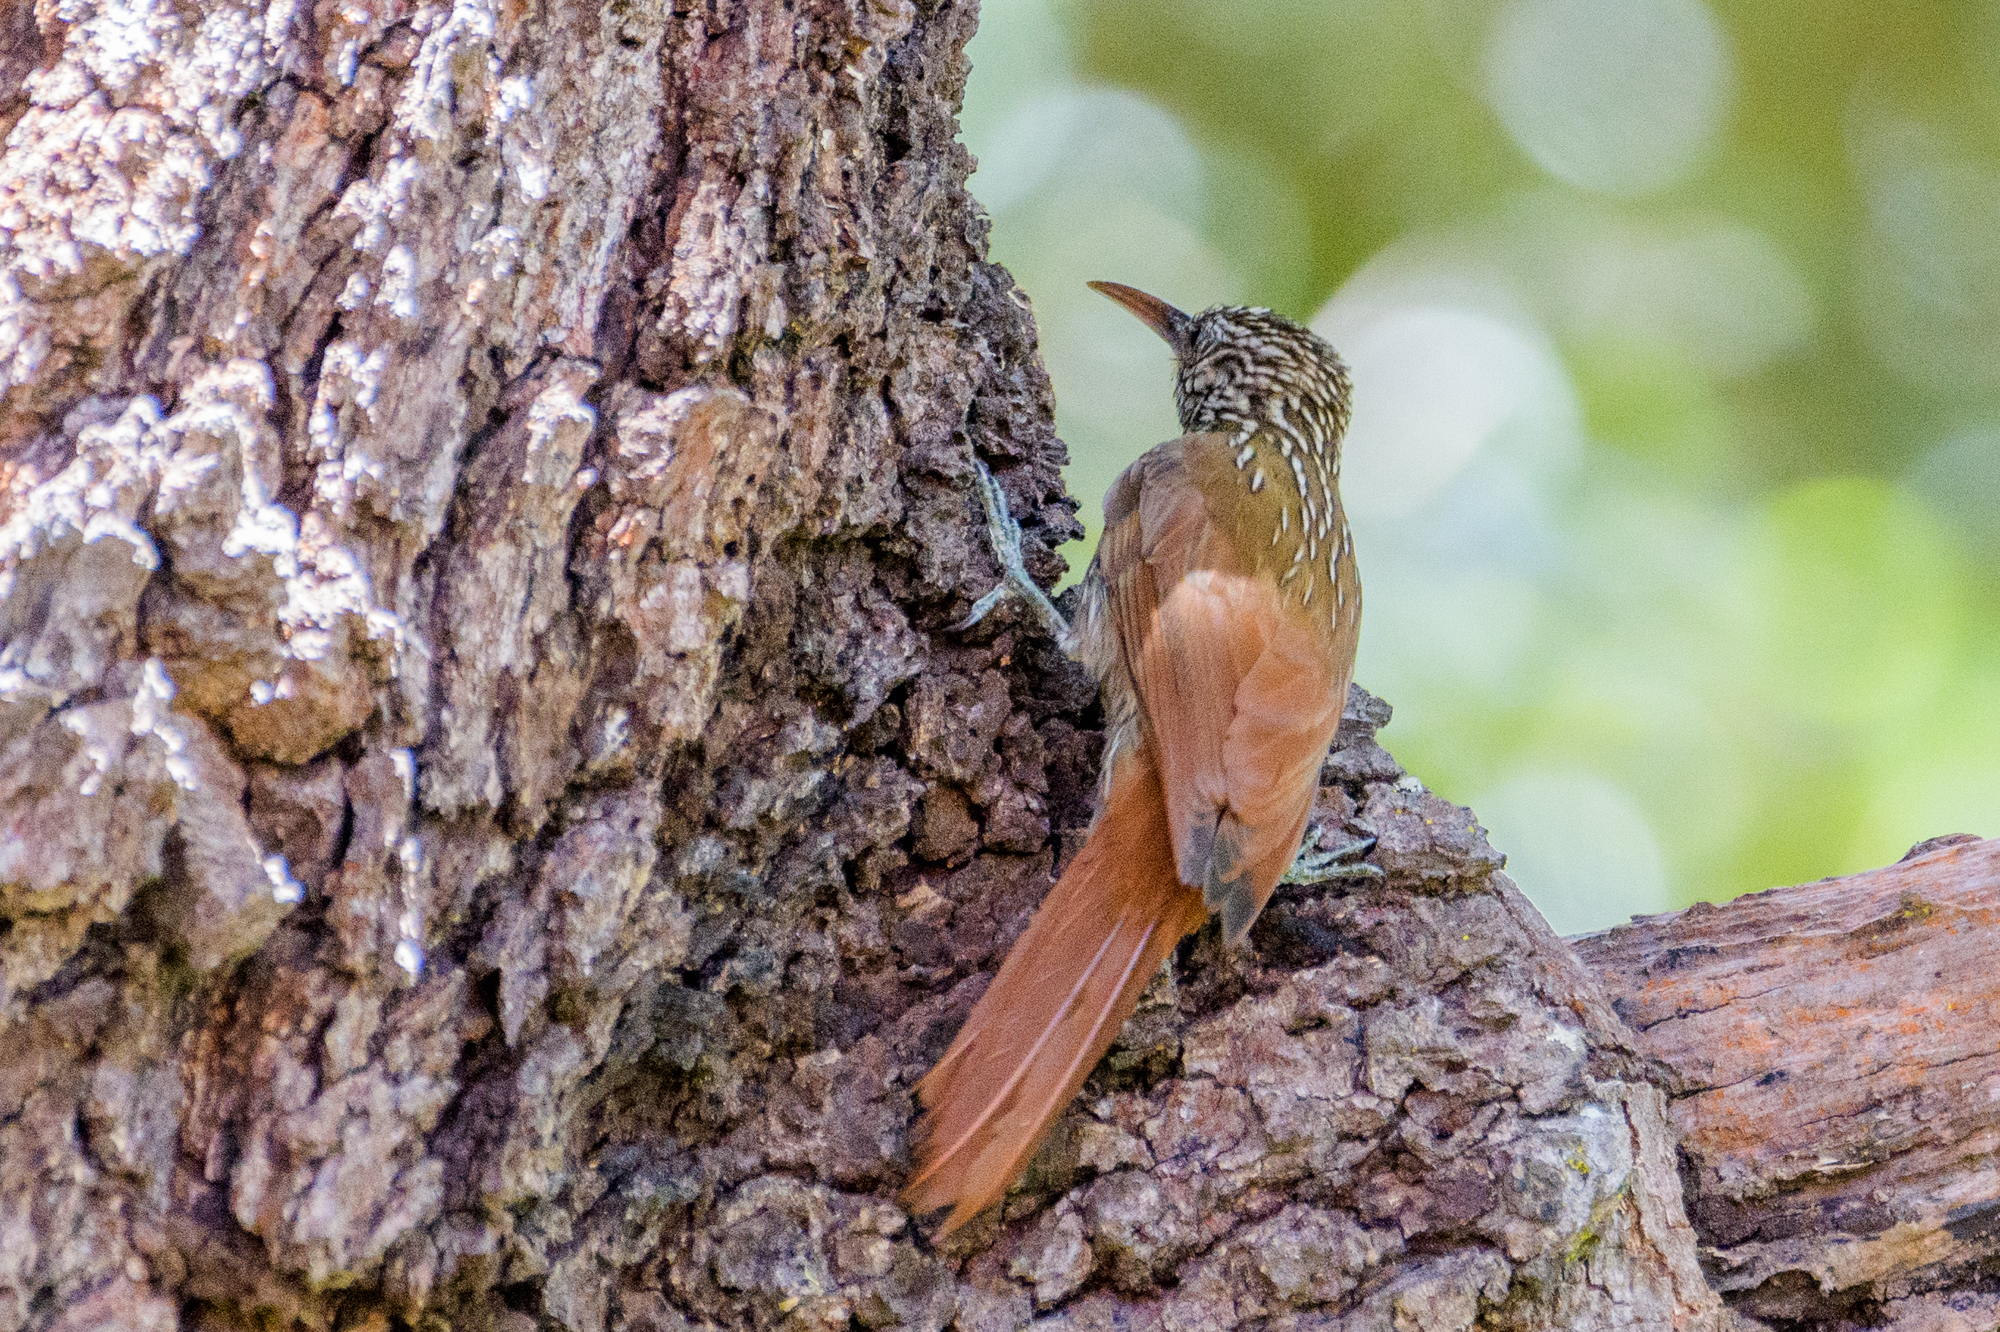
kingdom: Animalia
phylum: Chordata
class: Aves
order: Passeriformes
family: Furnariidae
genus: Lepidocolaptes
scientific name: Lepidocolaptes souleyetii
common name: Streak-headed woodcreeper
